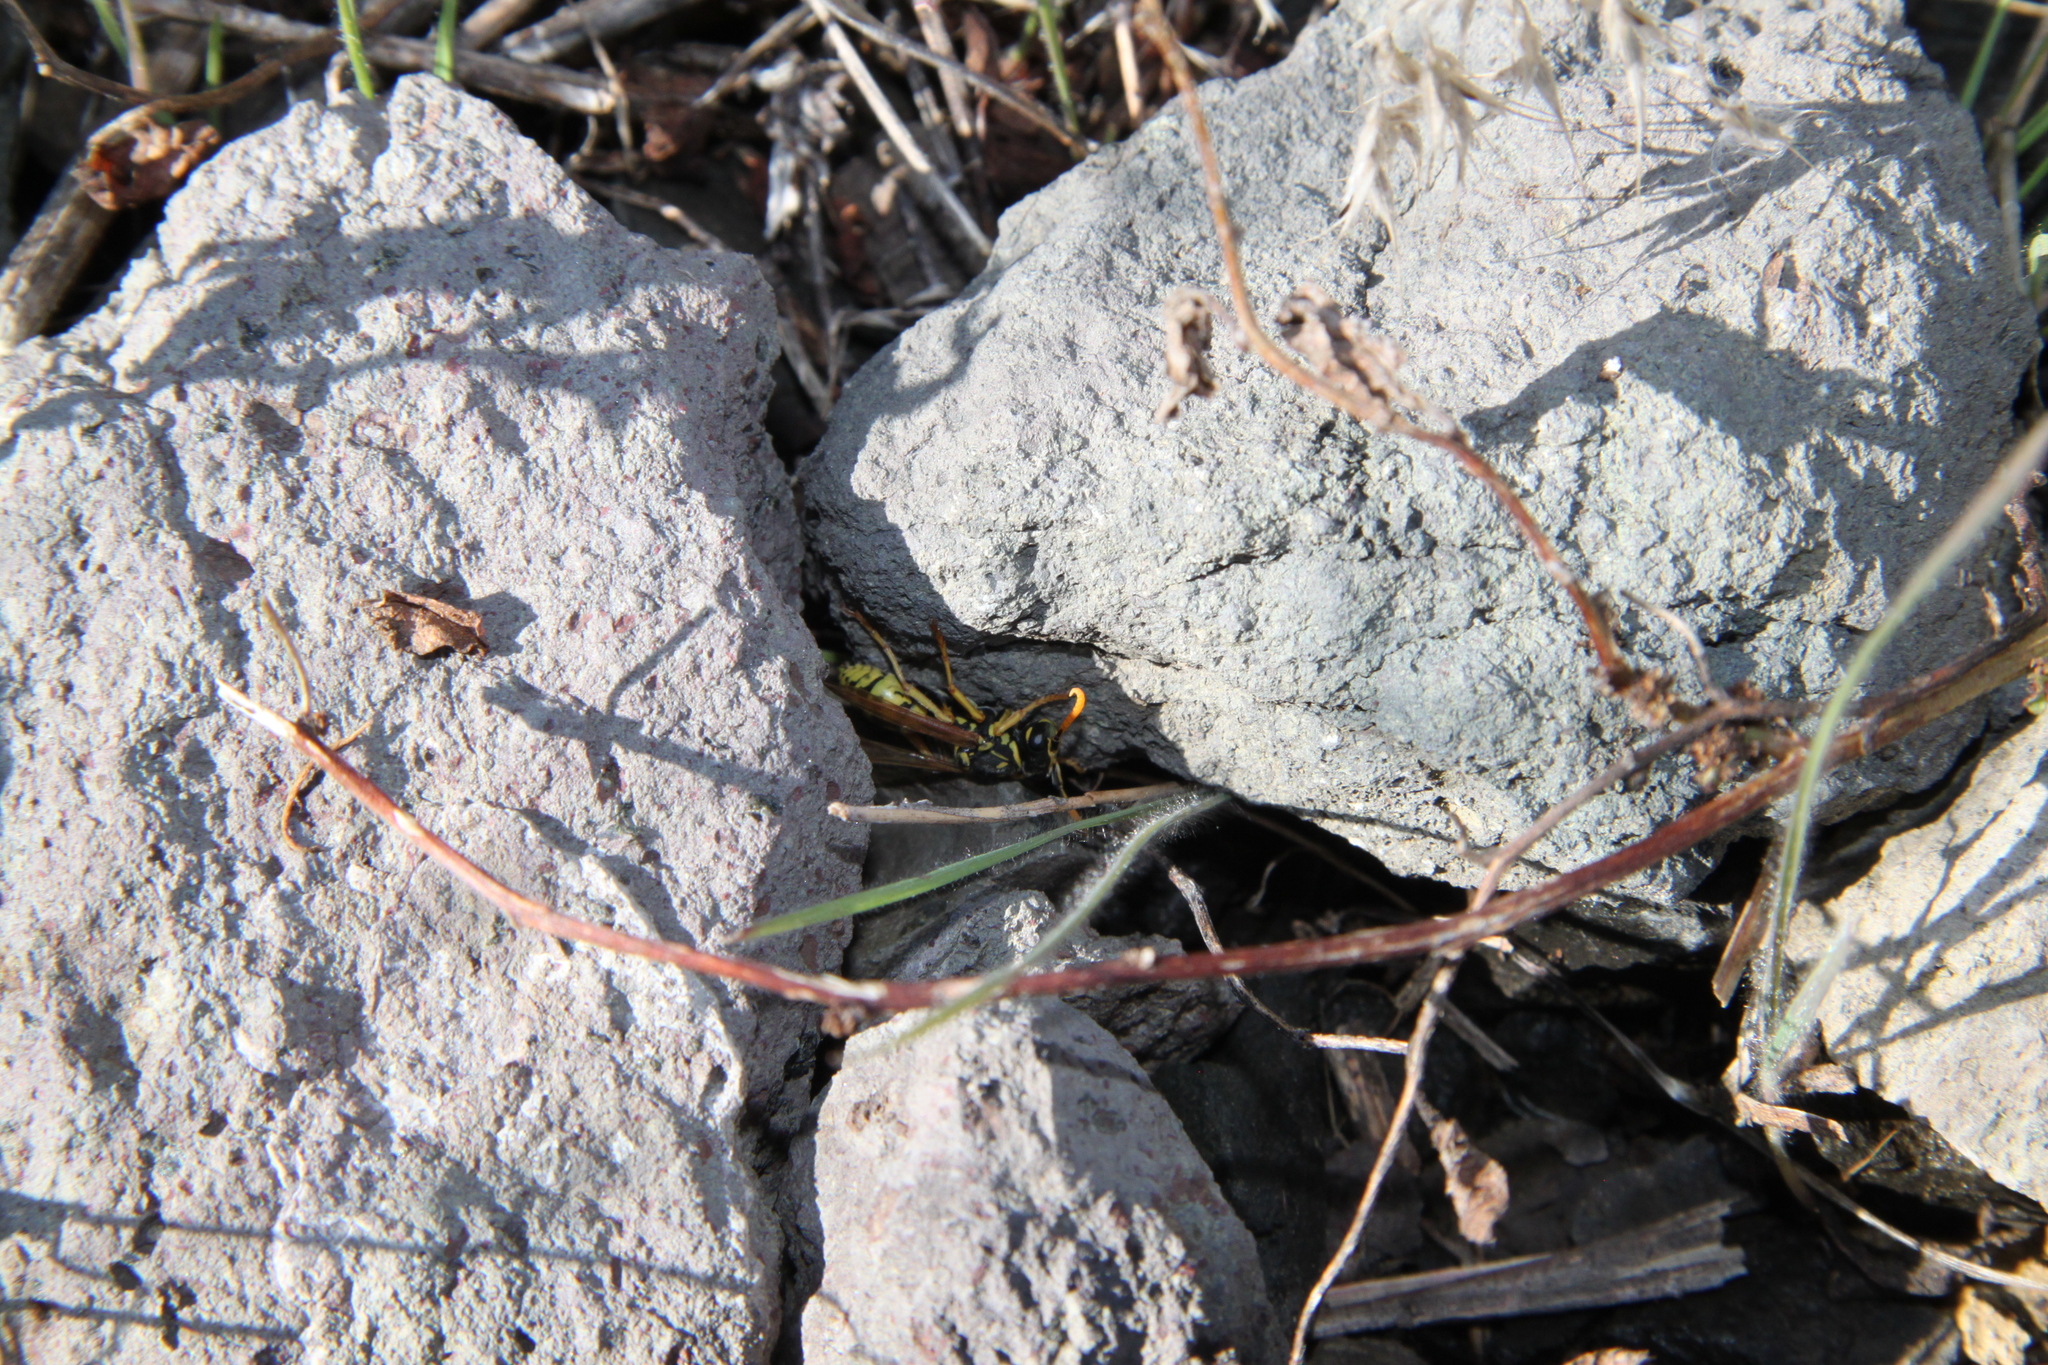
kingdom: Animalia
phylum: Arthropoda
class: Insecta
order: Hymenoptera
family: Eumenidae
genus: Polistes
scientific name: Polistes dominula
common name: Paper wasp
